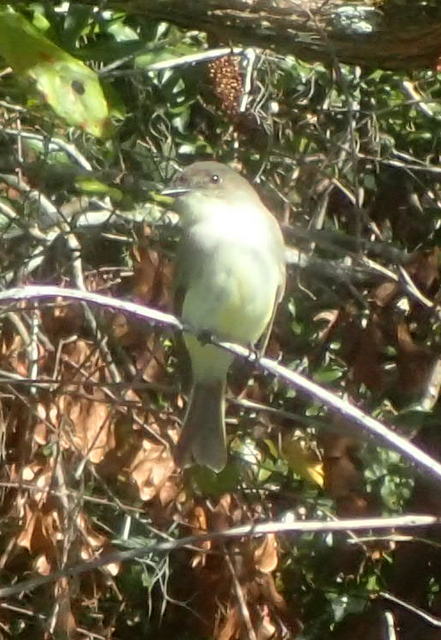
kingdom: Animalia
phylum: Chordata
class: Aves
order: Passeriformes
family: Tyrannidae
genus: Sayornis
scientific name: Sayornis phoebe
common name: Eastern phoebe
